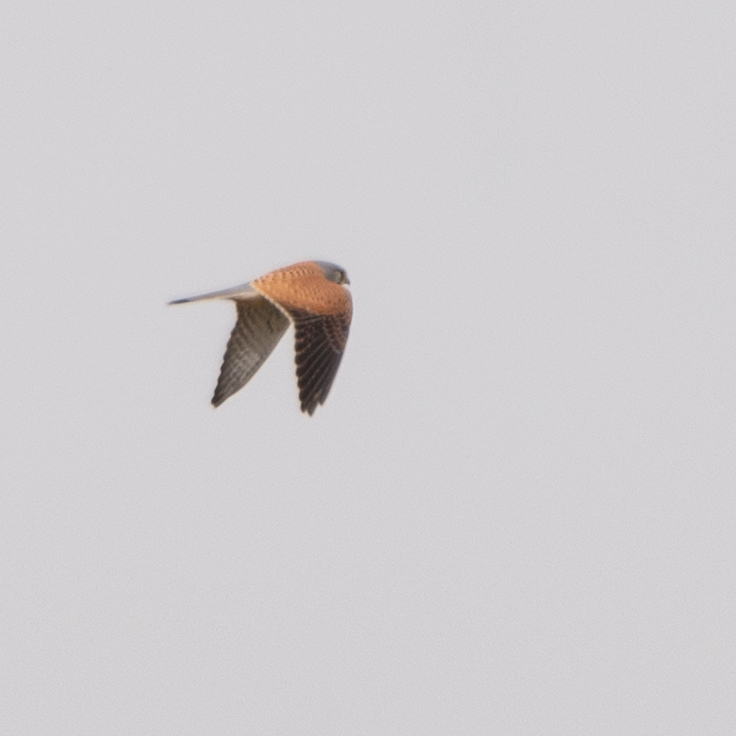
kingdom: Animalia
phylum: Chordata
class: Aves
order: Falconiformes
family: Falconidae
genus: Falco
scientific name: Falco tinnunculus
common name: Common kestrel
